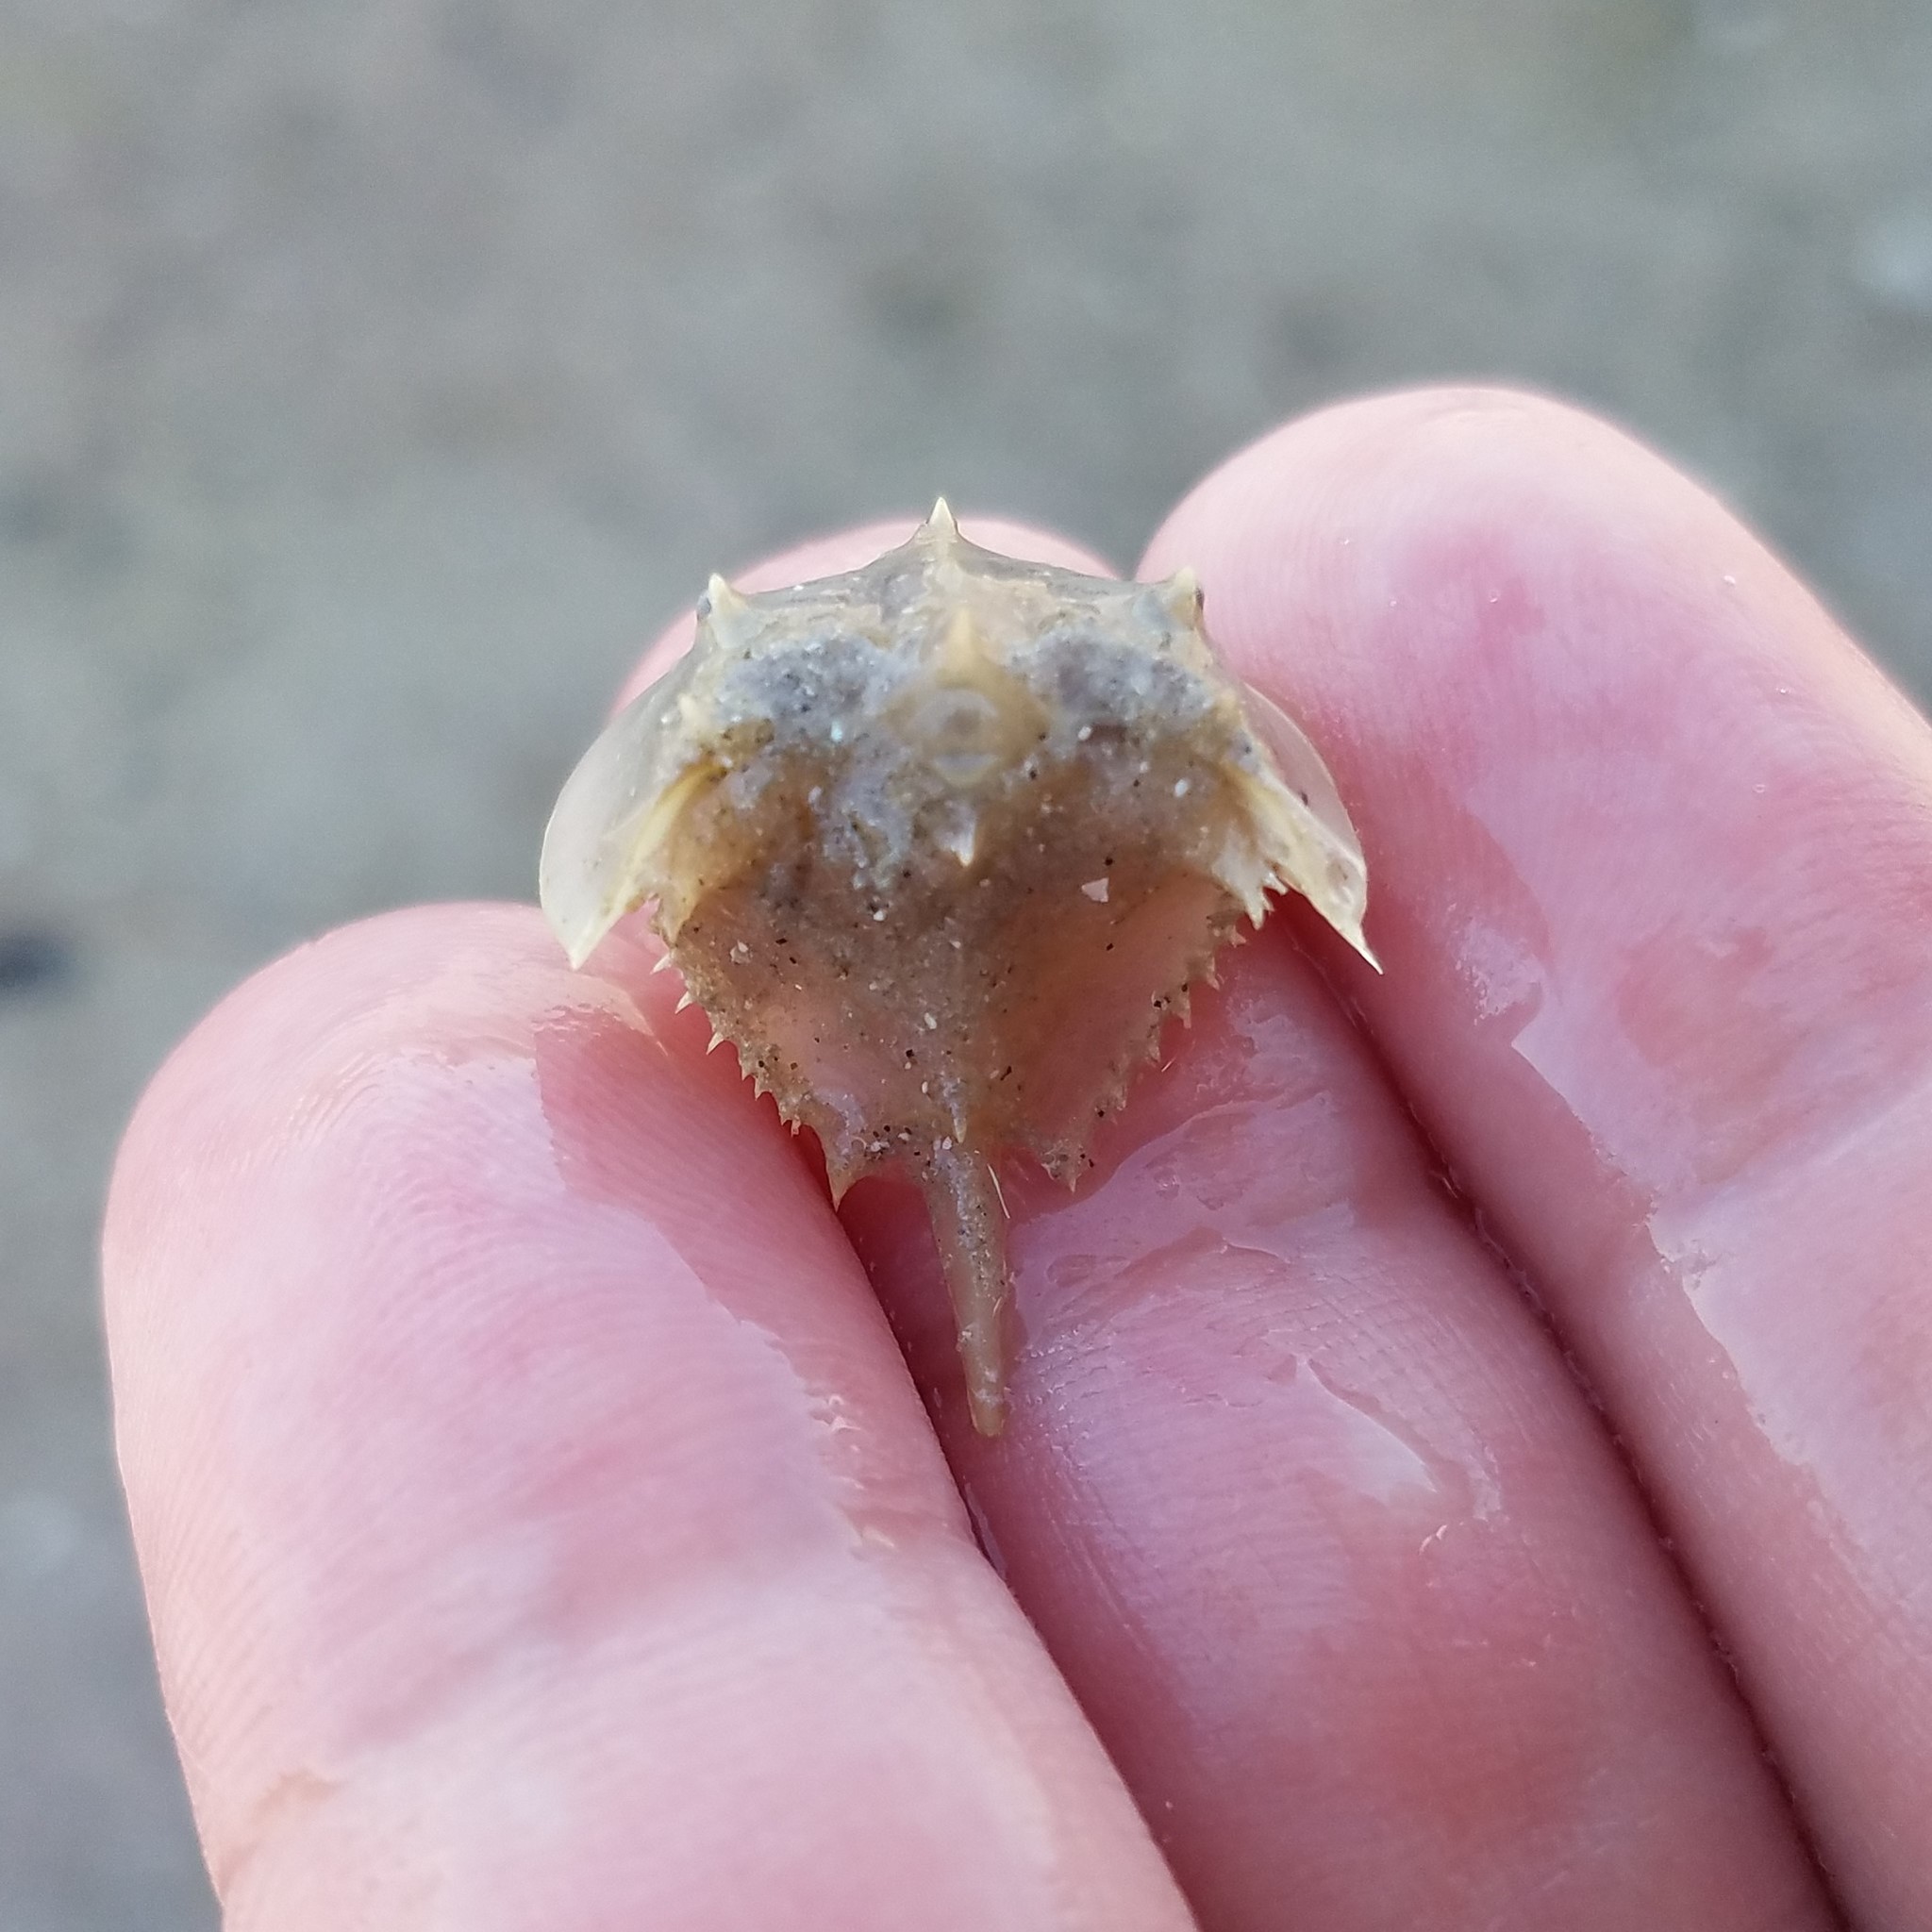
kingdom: Animalia
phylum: Arthropoda
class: Merostomata
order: Xiphosurida
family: Limulidae
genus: Limulus
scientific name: Limulus polyphemus
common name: Horseshoe crab
